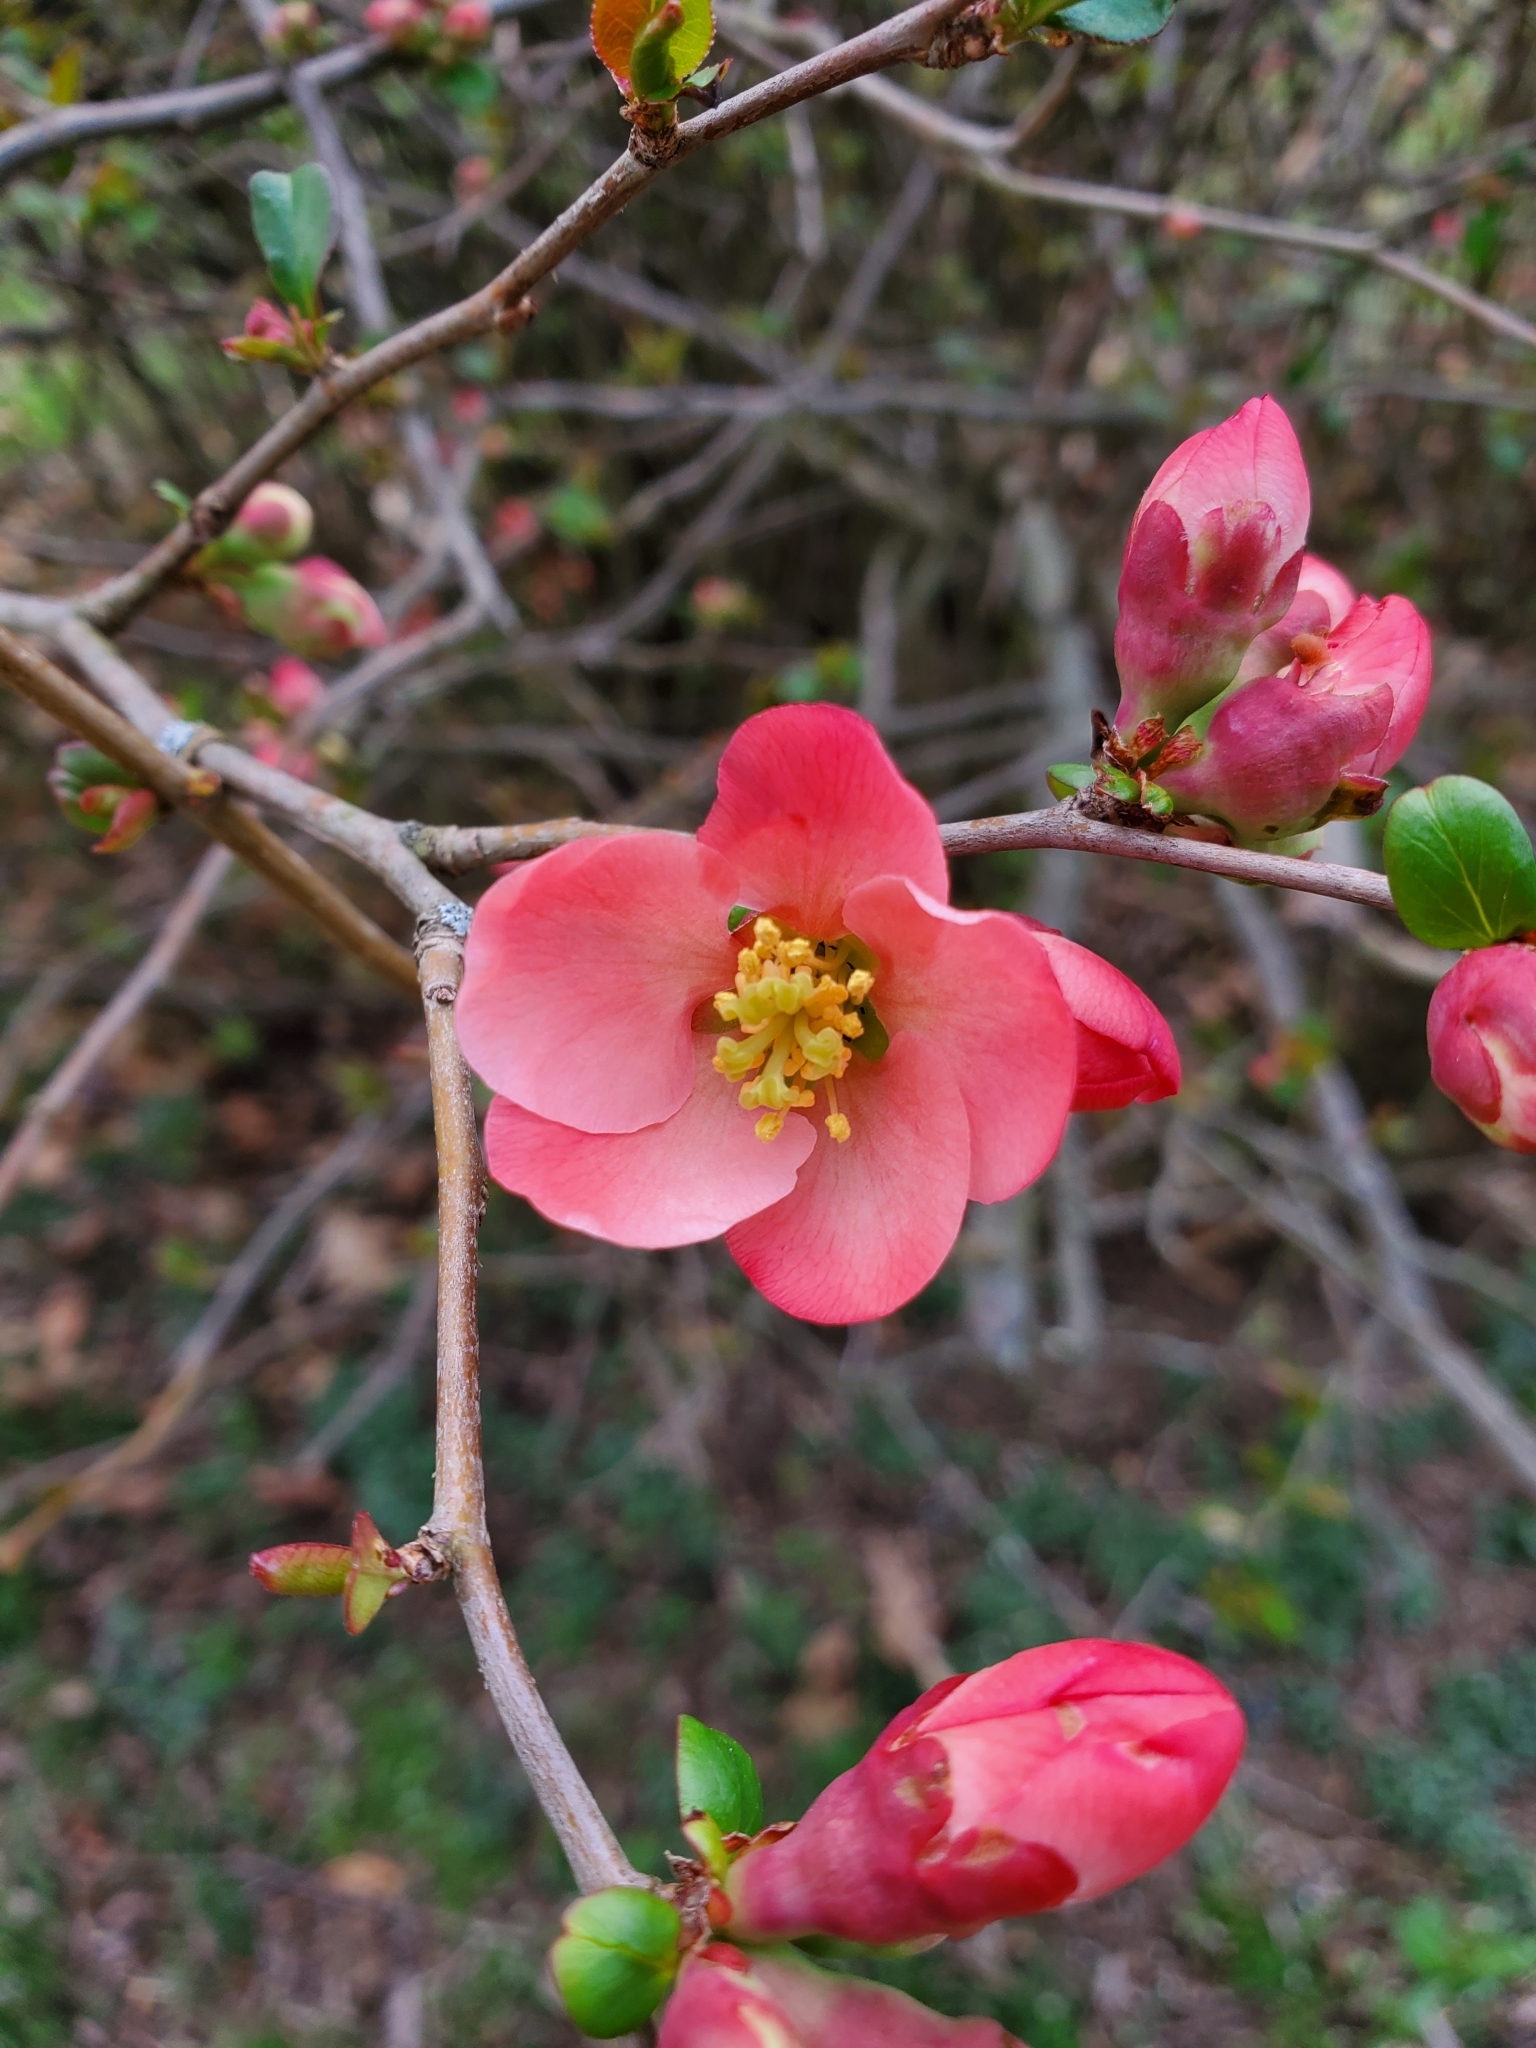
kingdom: Plantae
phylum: Tracheophyta
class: Magnoliopsida
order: Rosales
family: Rosaceae
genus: Chaenomeles
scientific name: Chaenomeles speciosa
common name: Japanese quince
